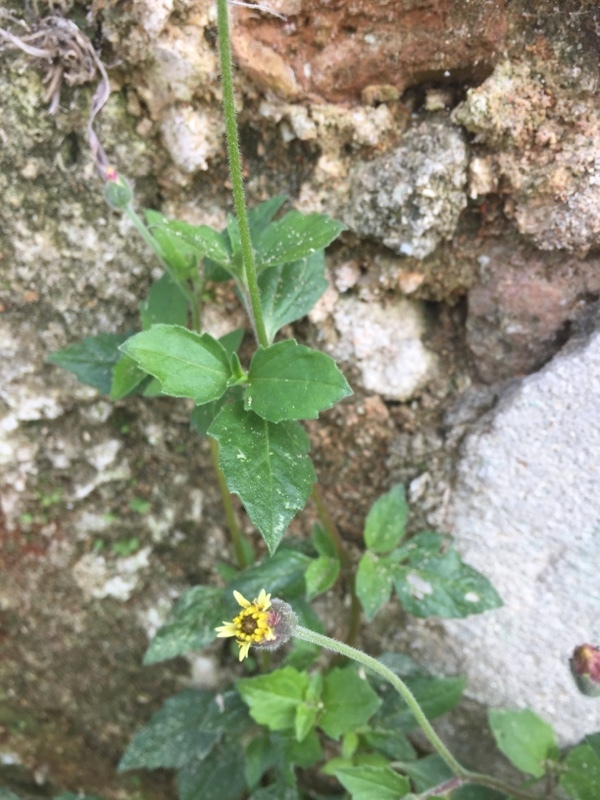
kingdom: Plantae
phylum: Tracheophyta
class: Magnoliopsida
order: Asterales
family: Asteraceae
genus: Tridax
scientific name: Tridax procumbens
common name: Coatbuttons
